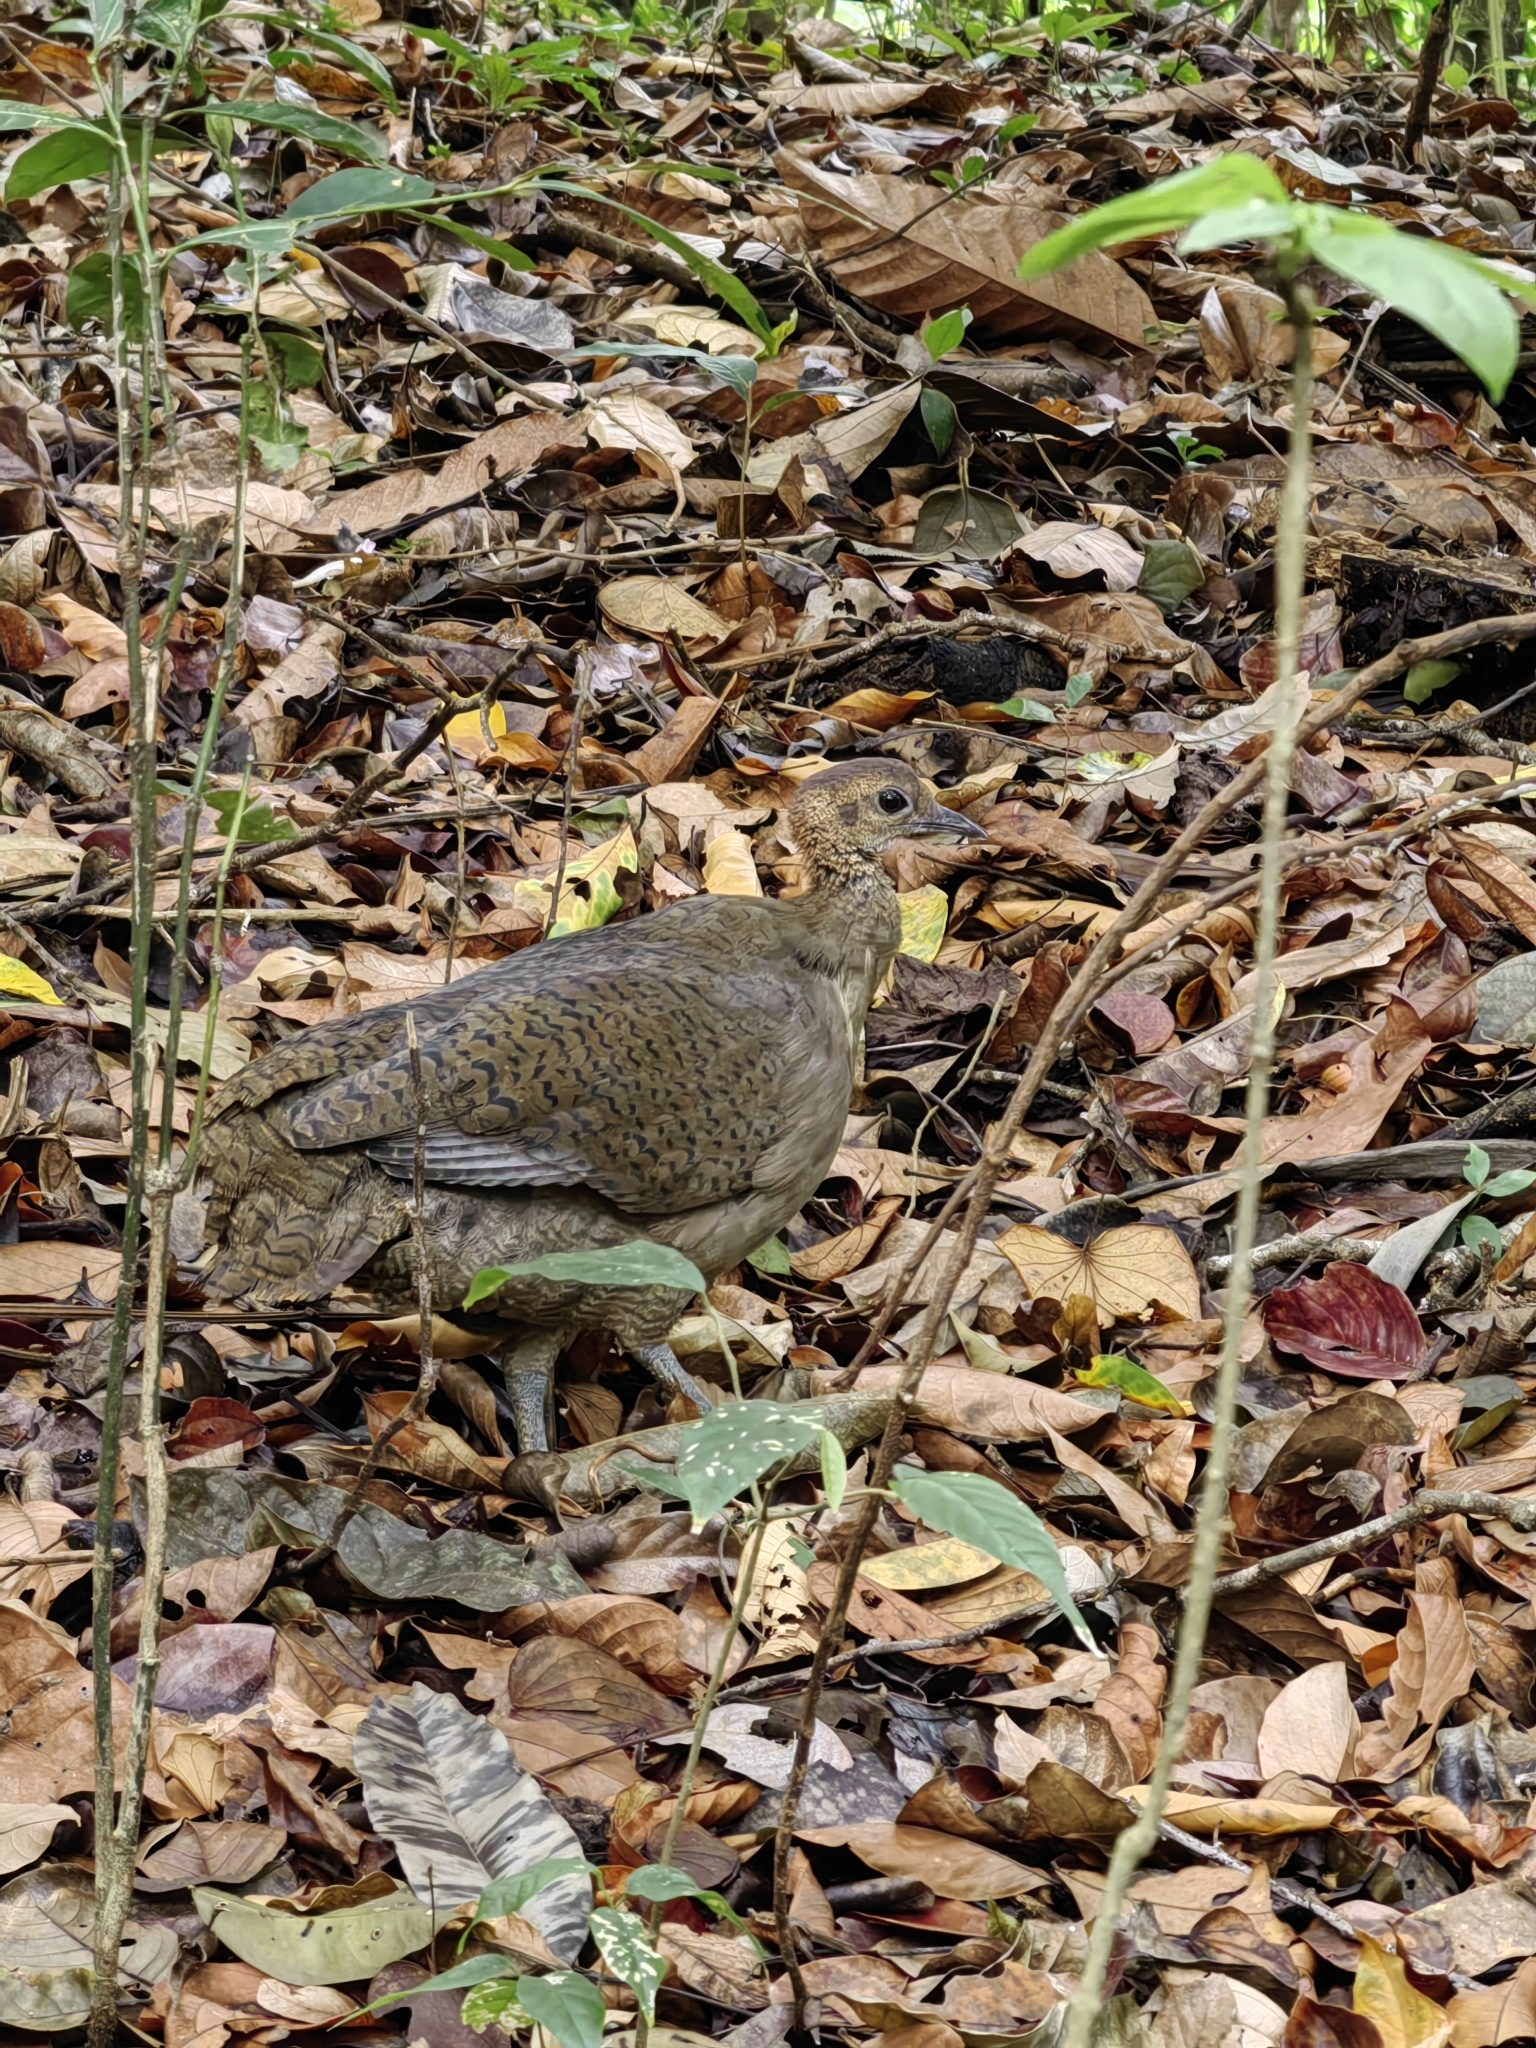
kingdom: Animalia
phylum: Chordata
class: Aves
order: Tinamiformes
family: Tinamidae
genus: Tinamus
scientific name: Tinamus major
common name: Great tinamou
